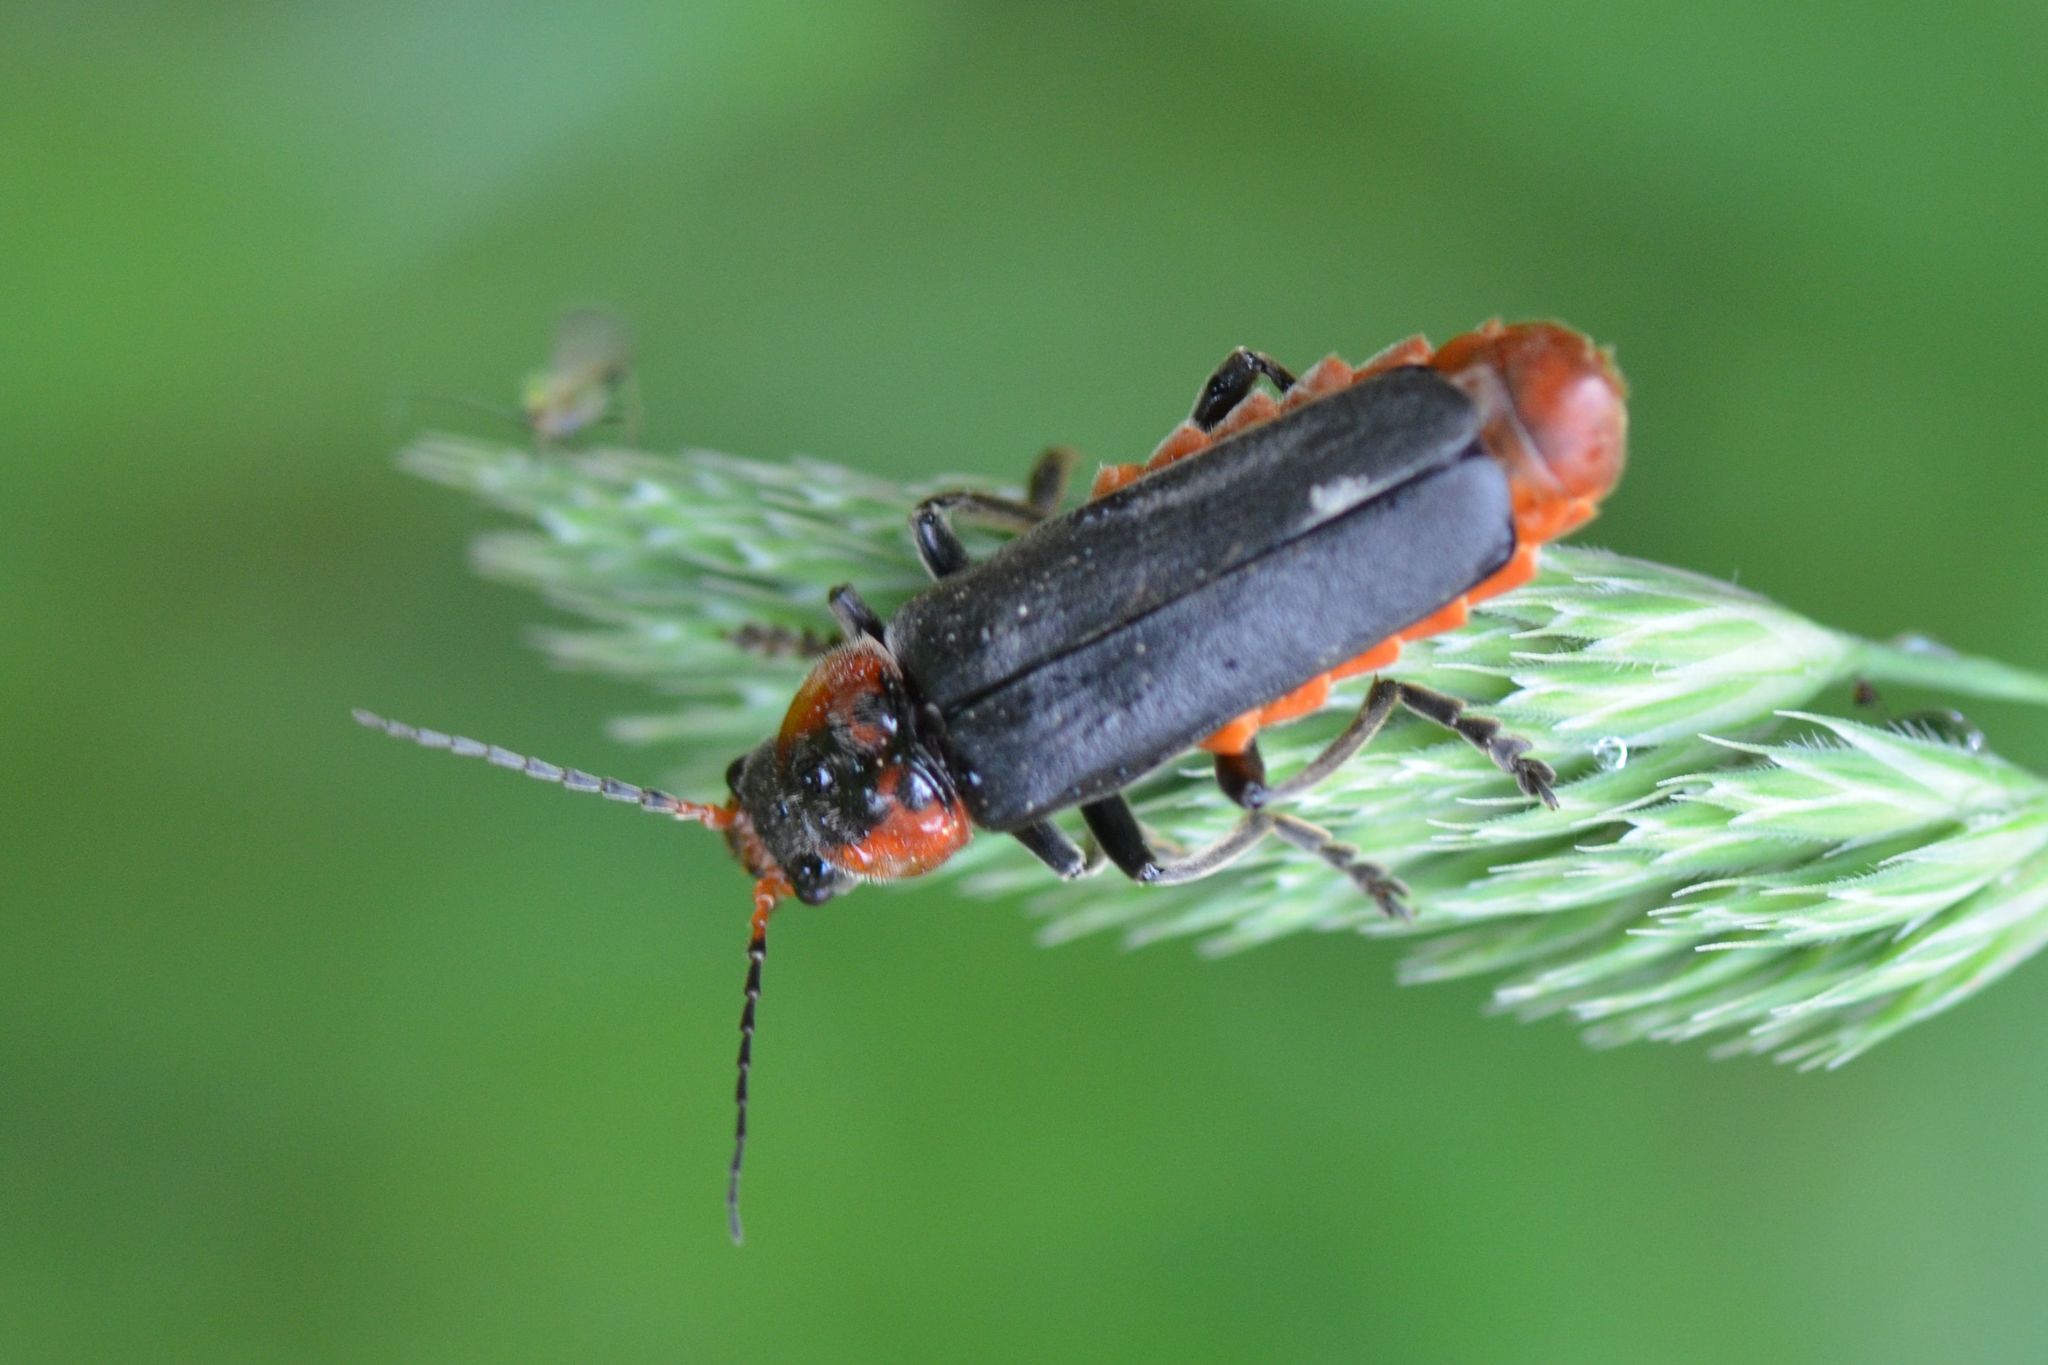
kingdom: Animalia
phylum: Arthropoda
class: Insecta
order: Coleoptera
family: Cantharidae
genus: Cantharis
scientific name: Cantharis fusca
